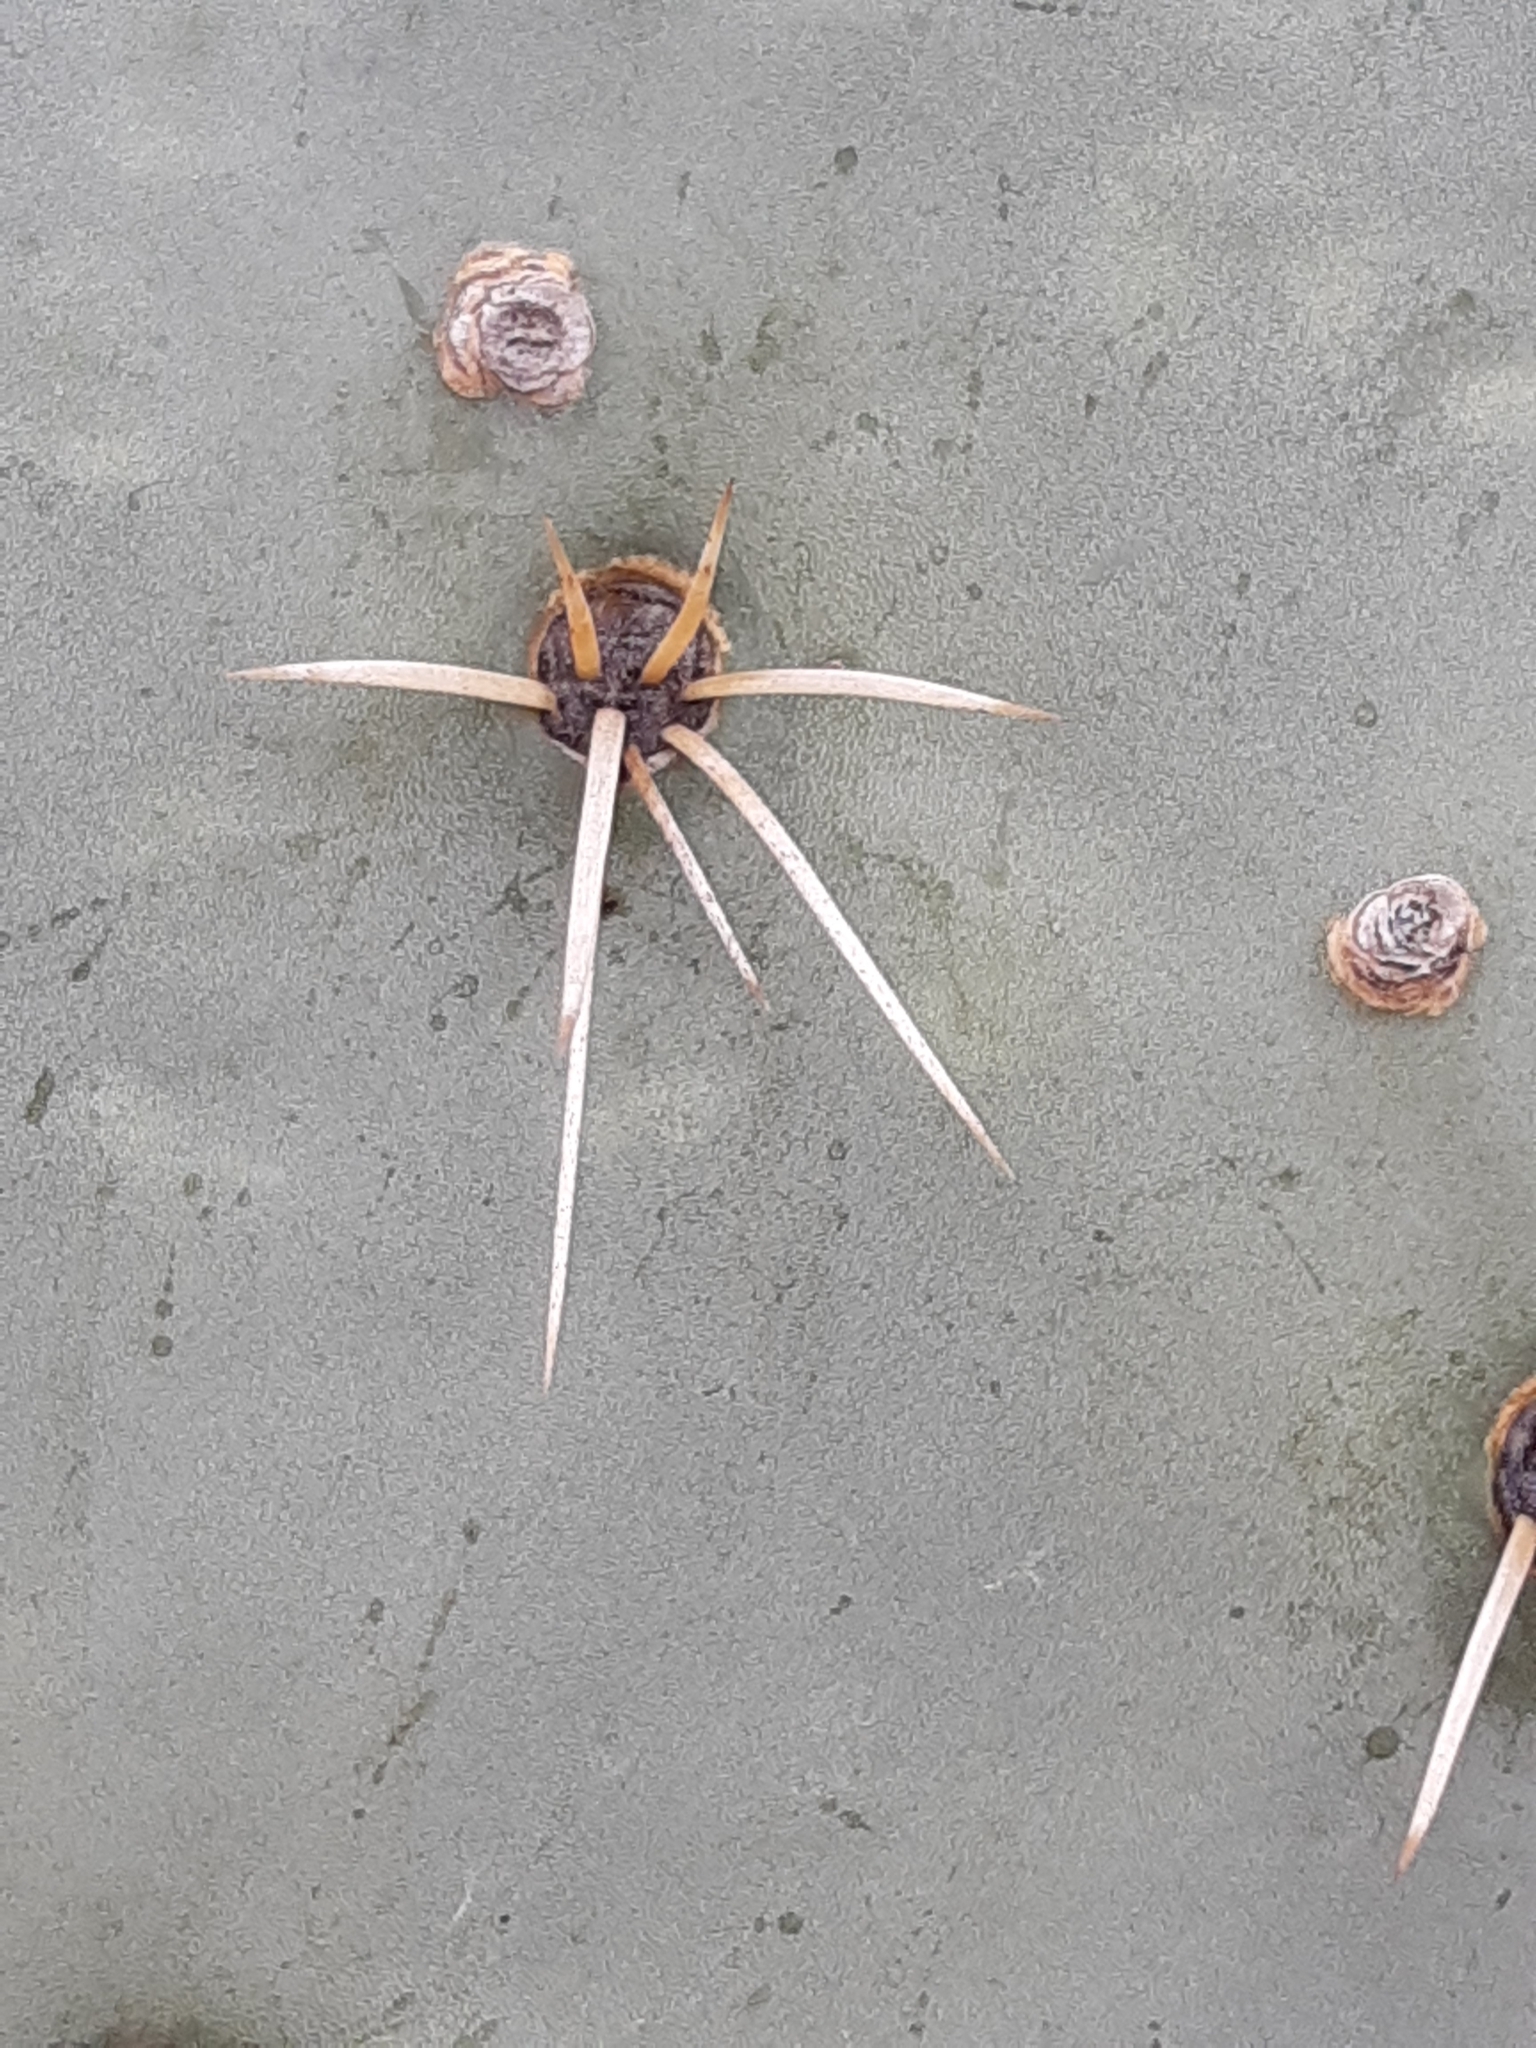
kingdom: Plantae
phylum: Tracheophyta
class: Magnoliopsida
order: Caryophyllales
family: Cactaceae
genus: Opuntia
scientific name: Opuntia robusta
